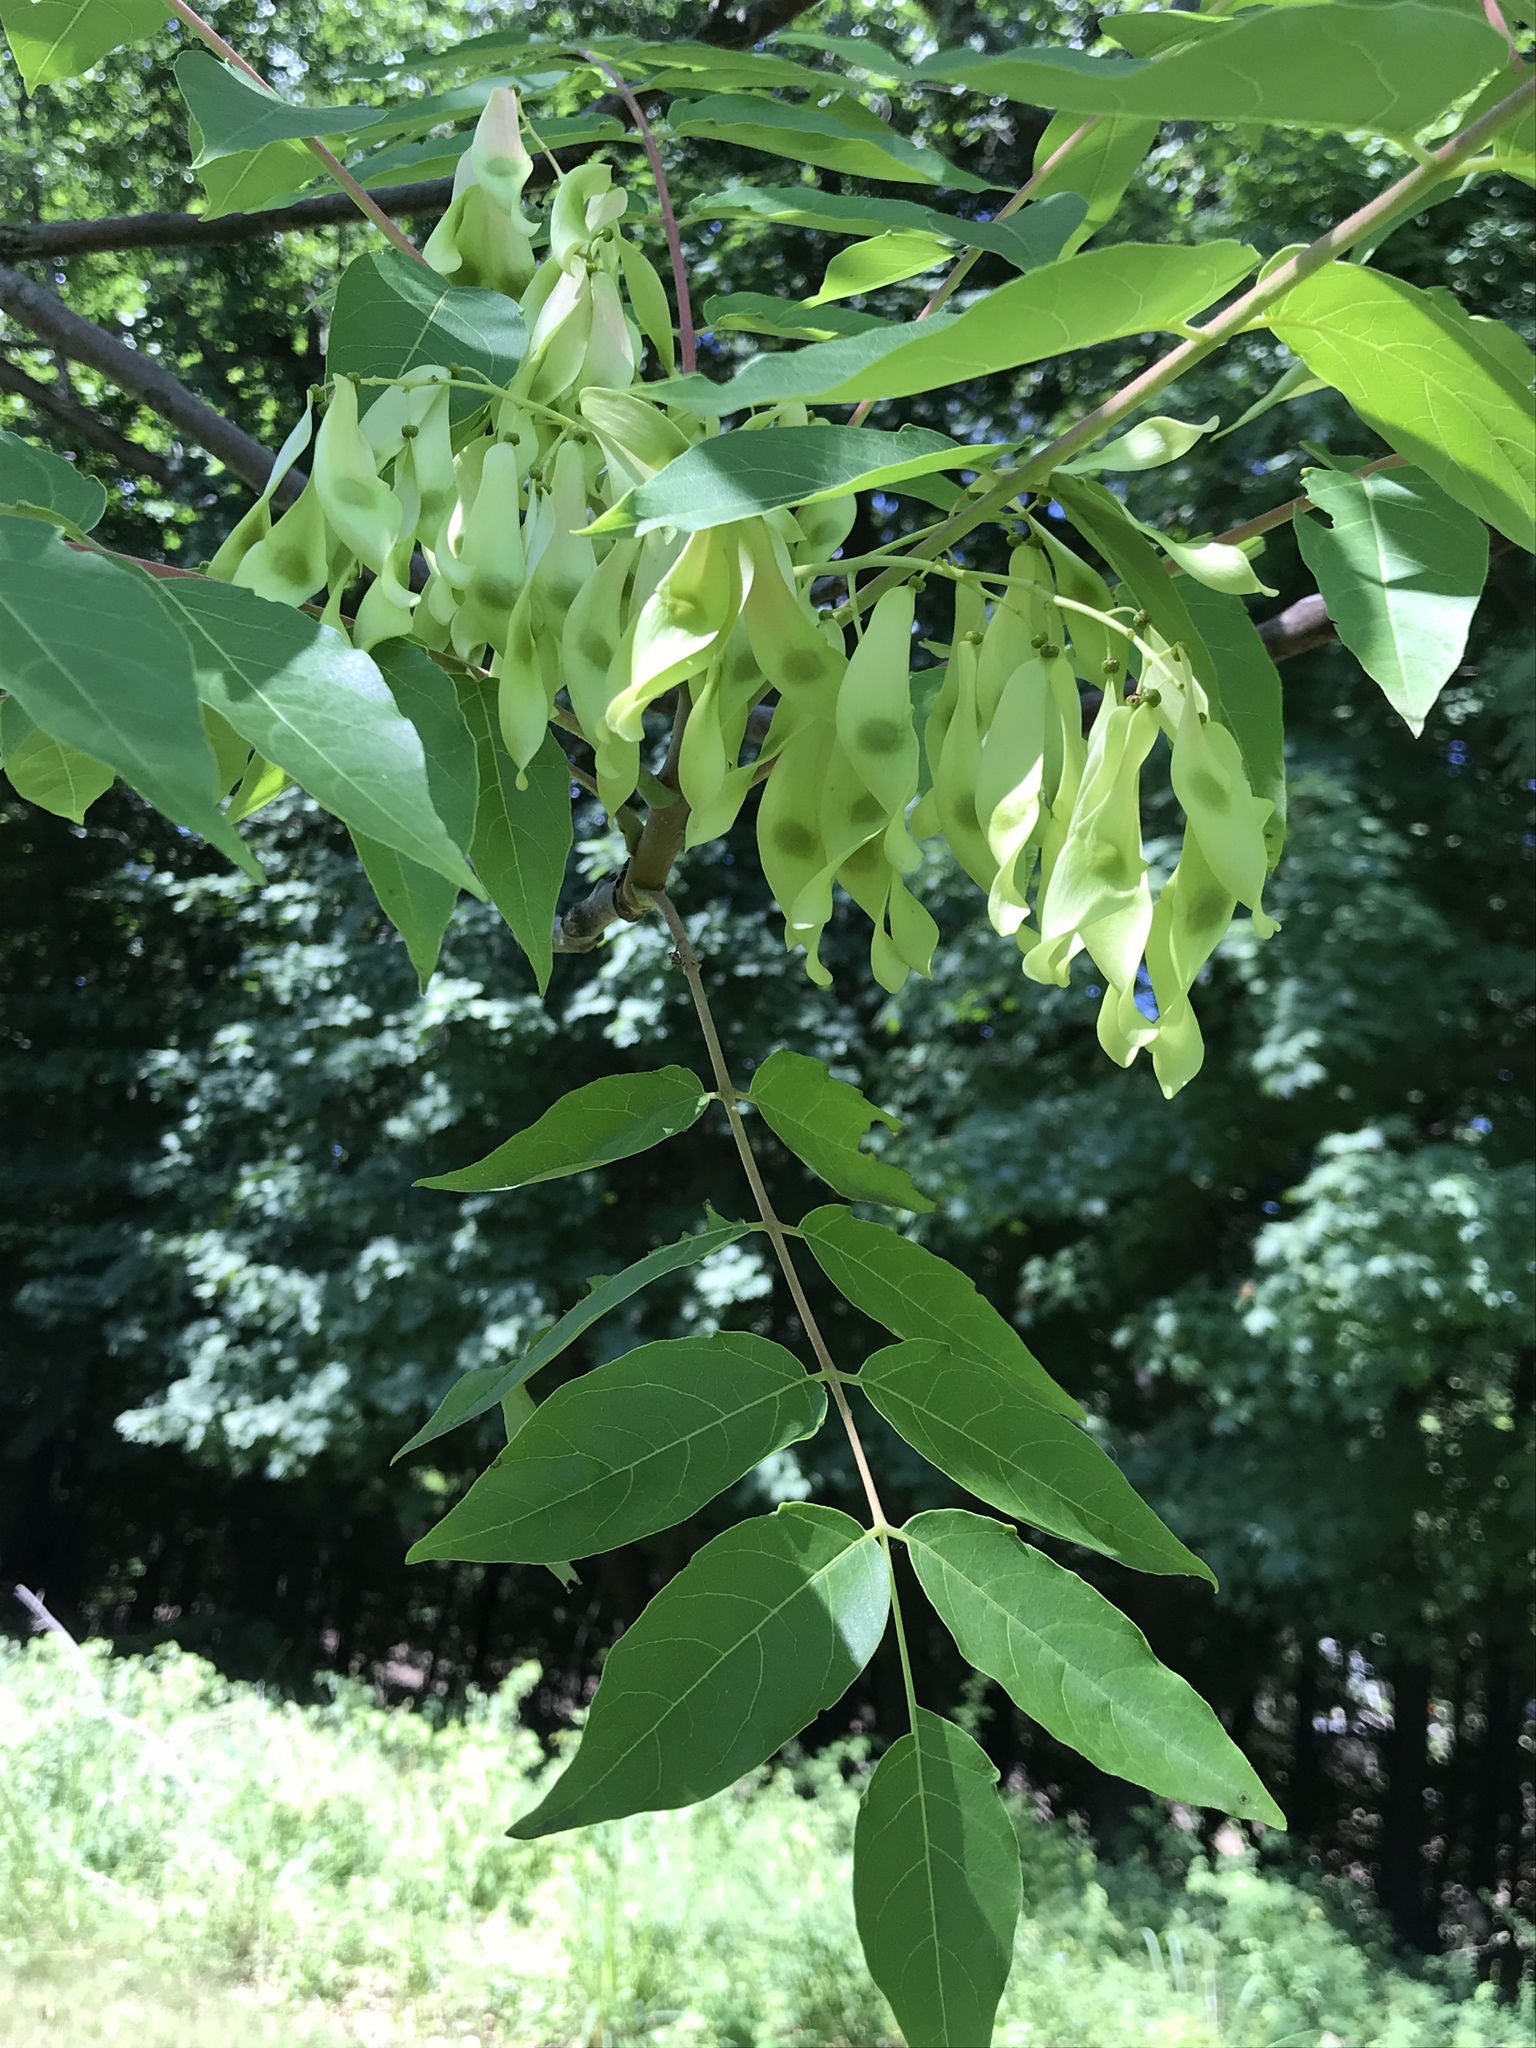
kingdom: Plantae
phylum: Tracheophyta
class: Magnoliopsida
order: Sapindales
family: Simaroubaceae
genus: Ailanthus
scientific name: Ailanthus altissima
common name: Tree-of-heaven
